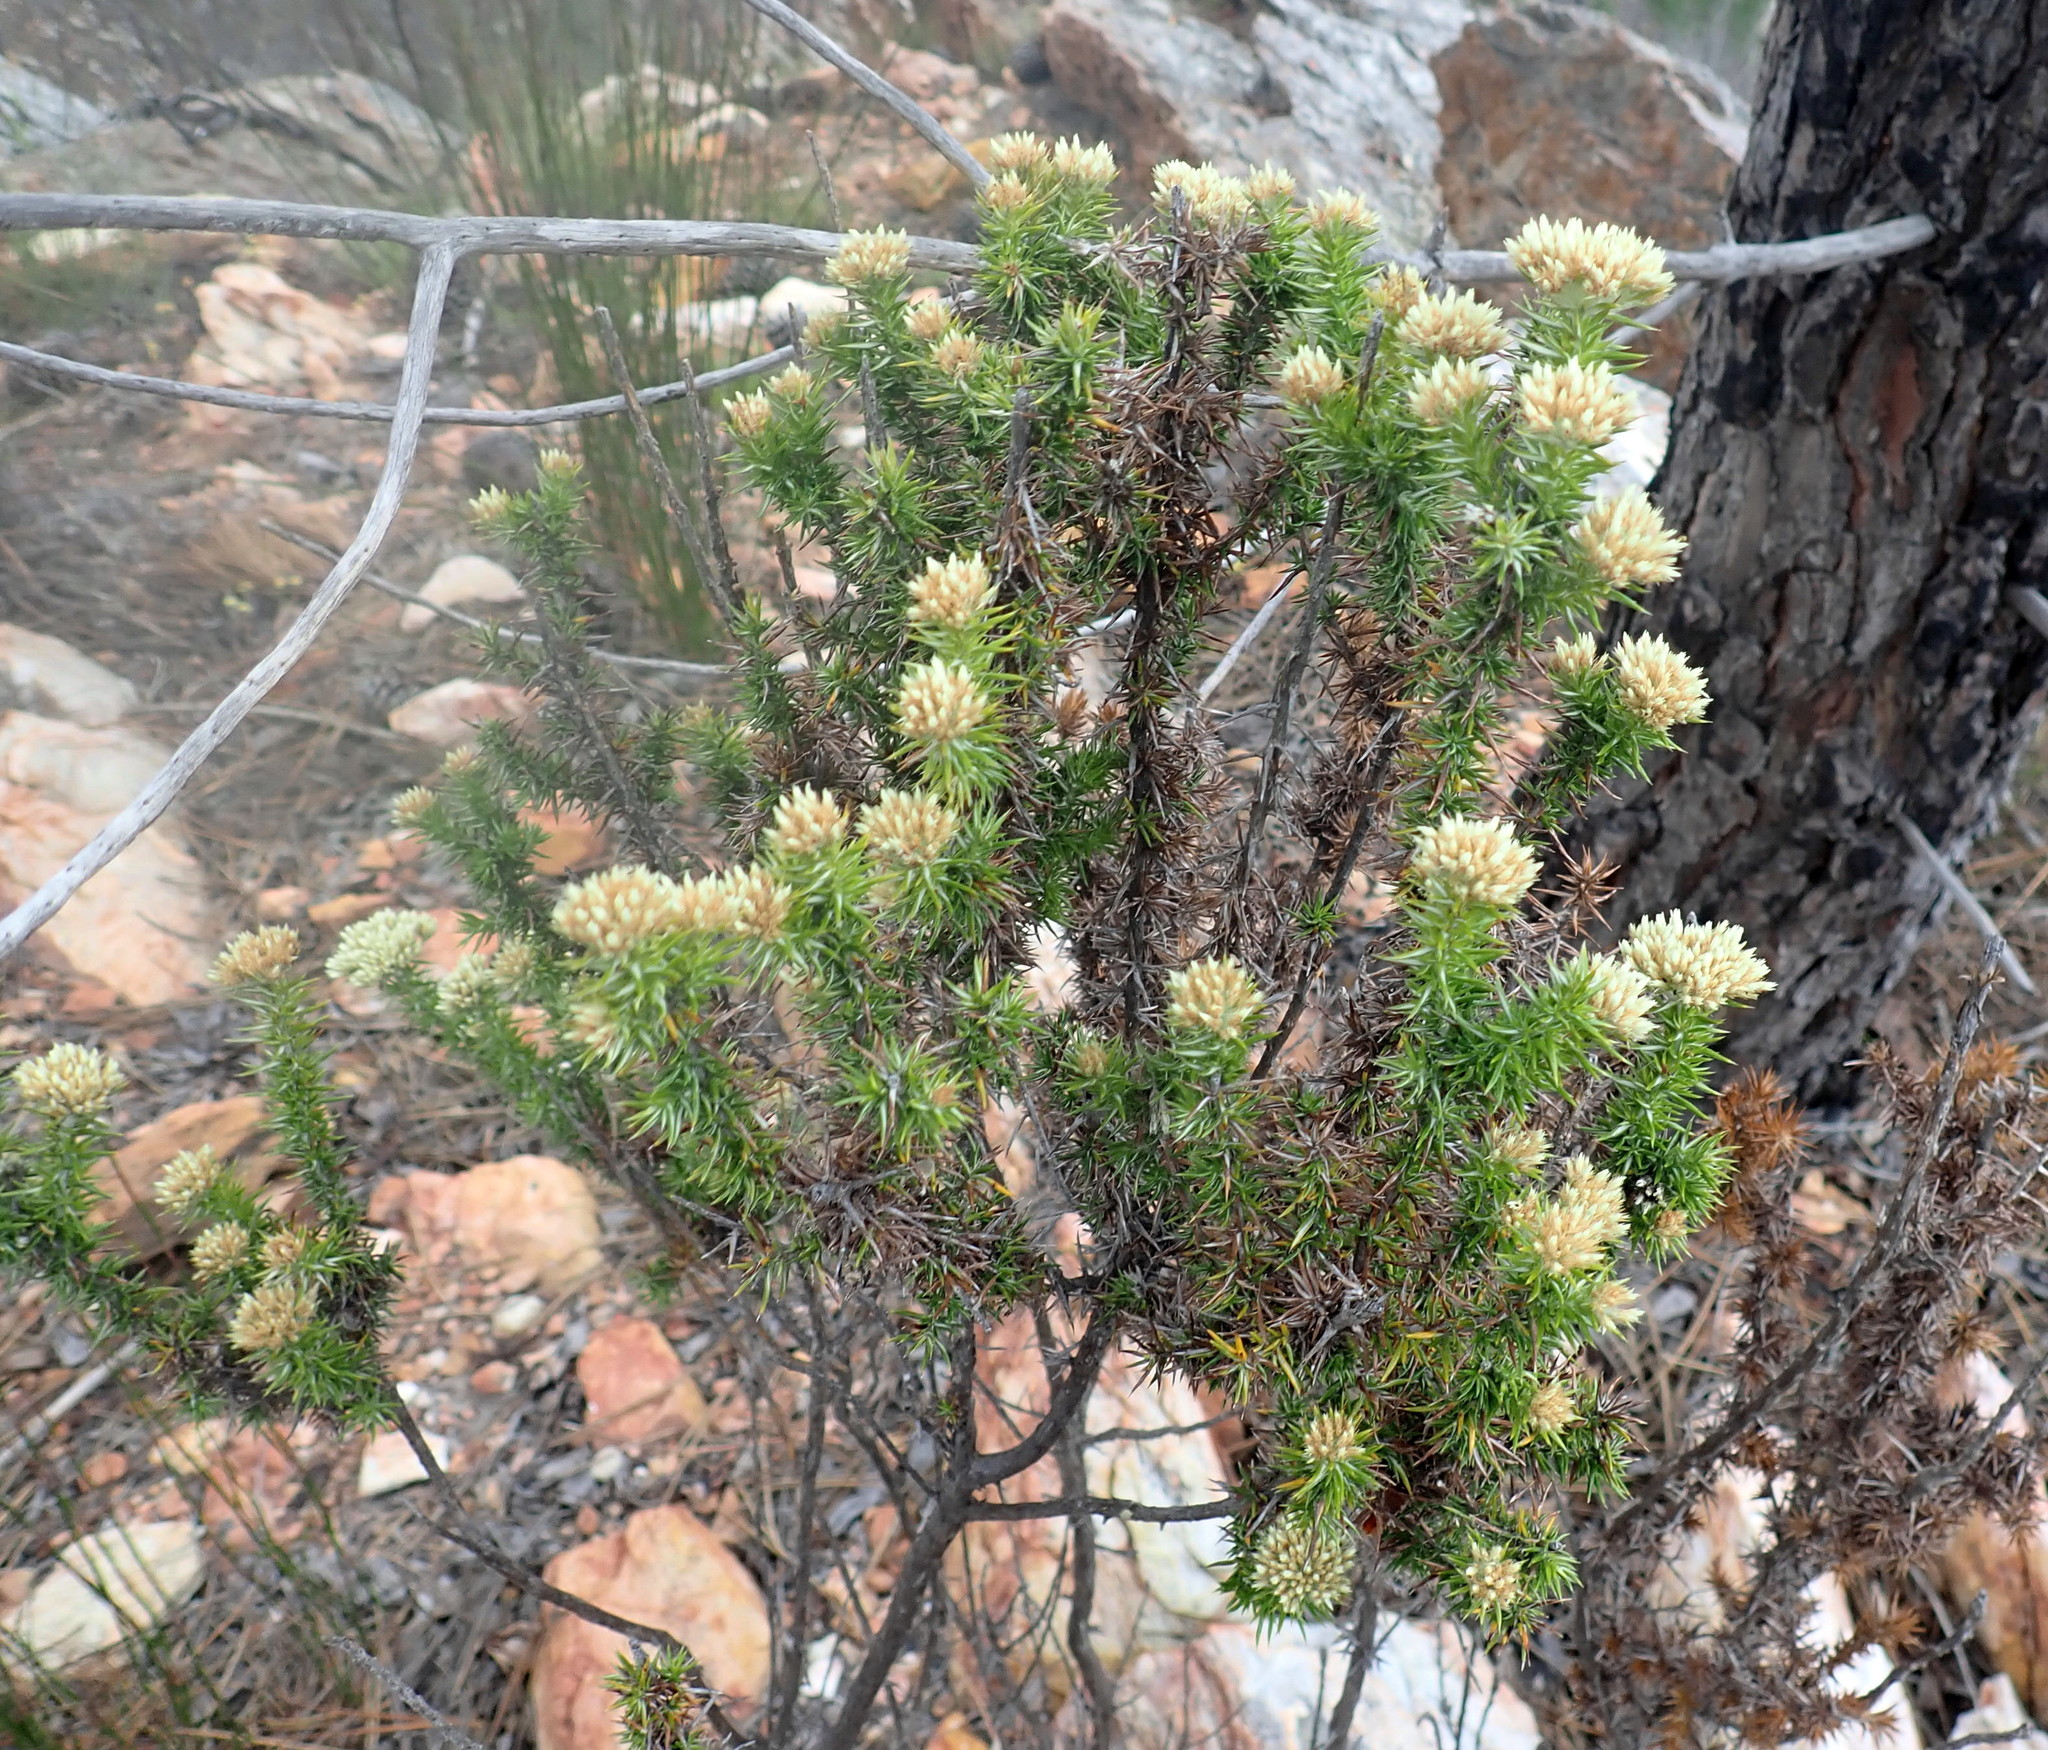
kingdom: Plantae
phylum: Tracheophyta
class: Magnoliopsida
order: Asterales
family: Asteraceae
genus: Metalasia
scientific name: Metalasia trivialis
